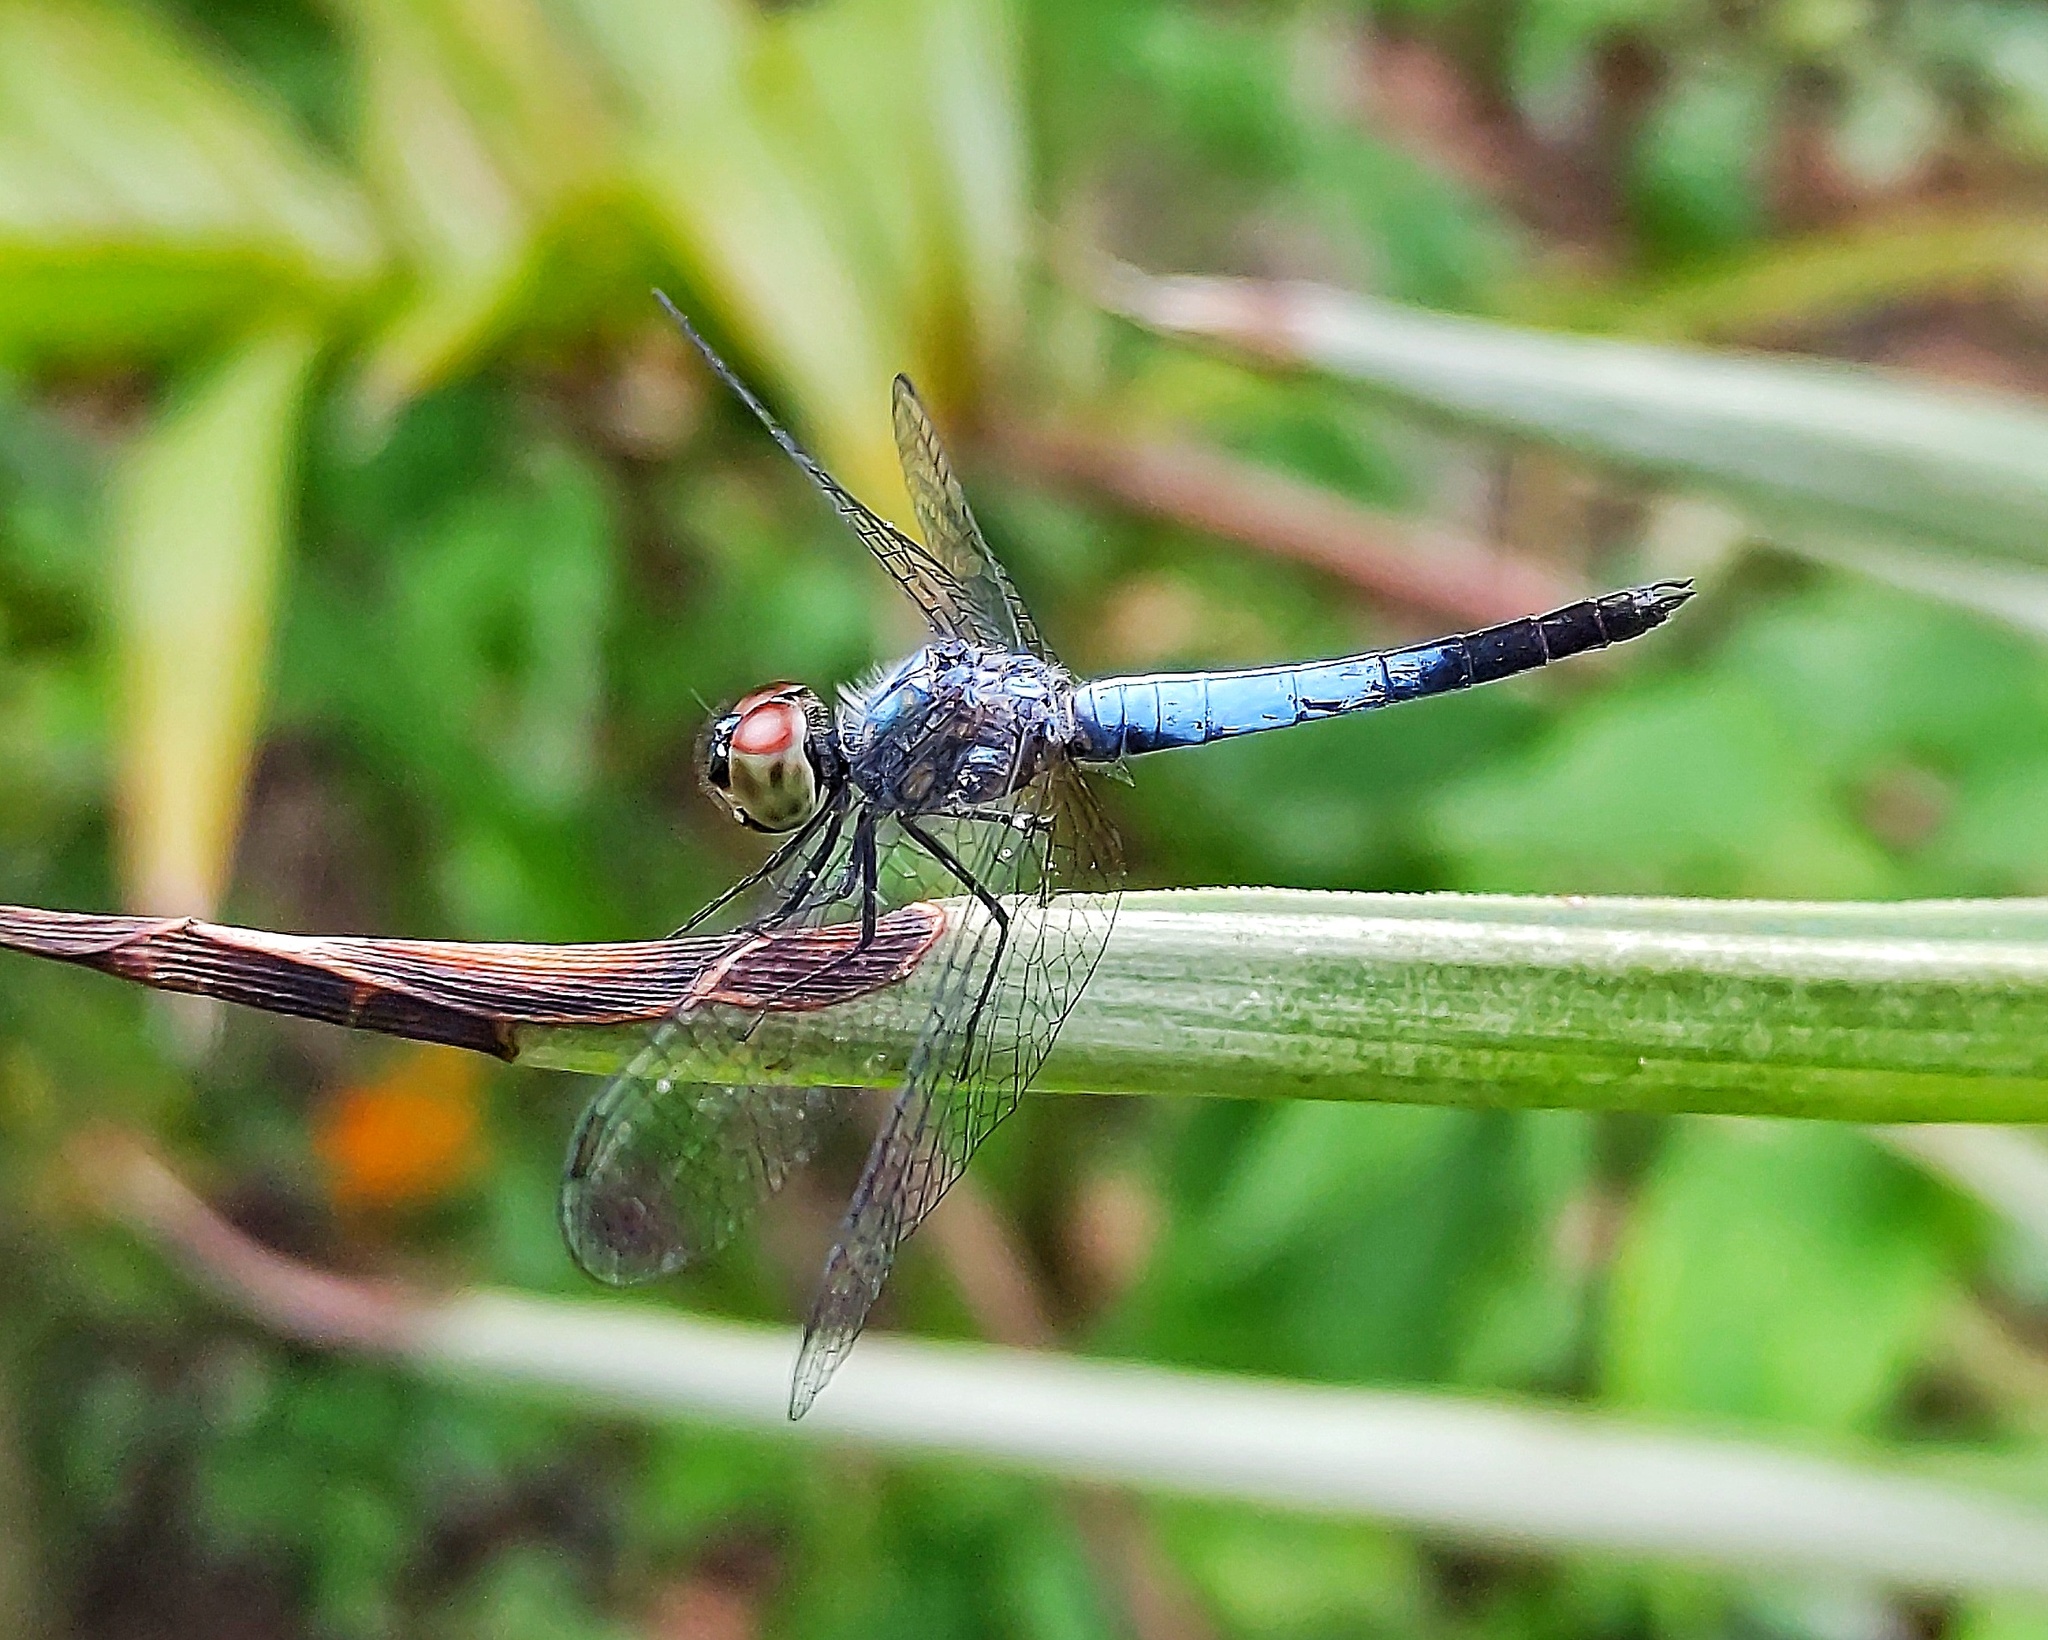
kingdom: Animalia
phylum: Arthropoda
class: Insecta
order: Odonata
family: Libellulidae
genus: Brachydiplax
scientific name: Brachydiplax sobrina
